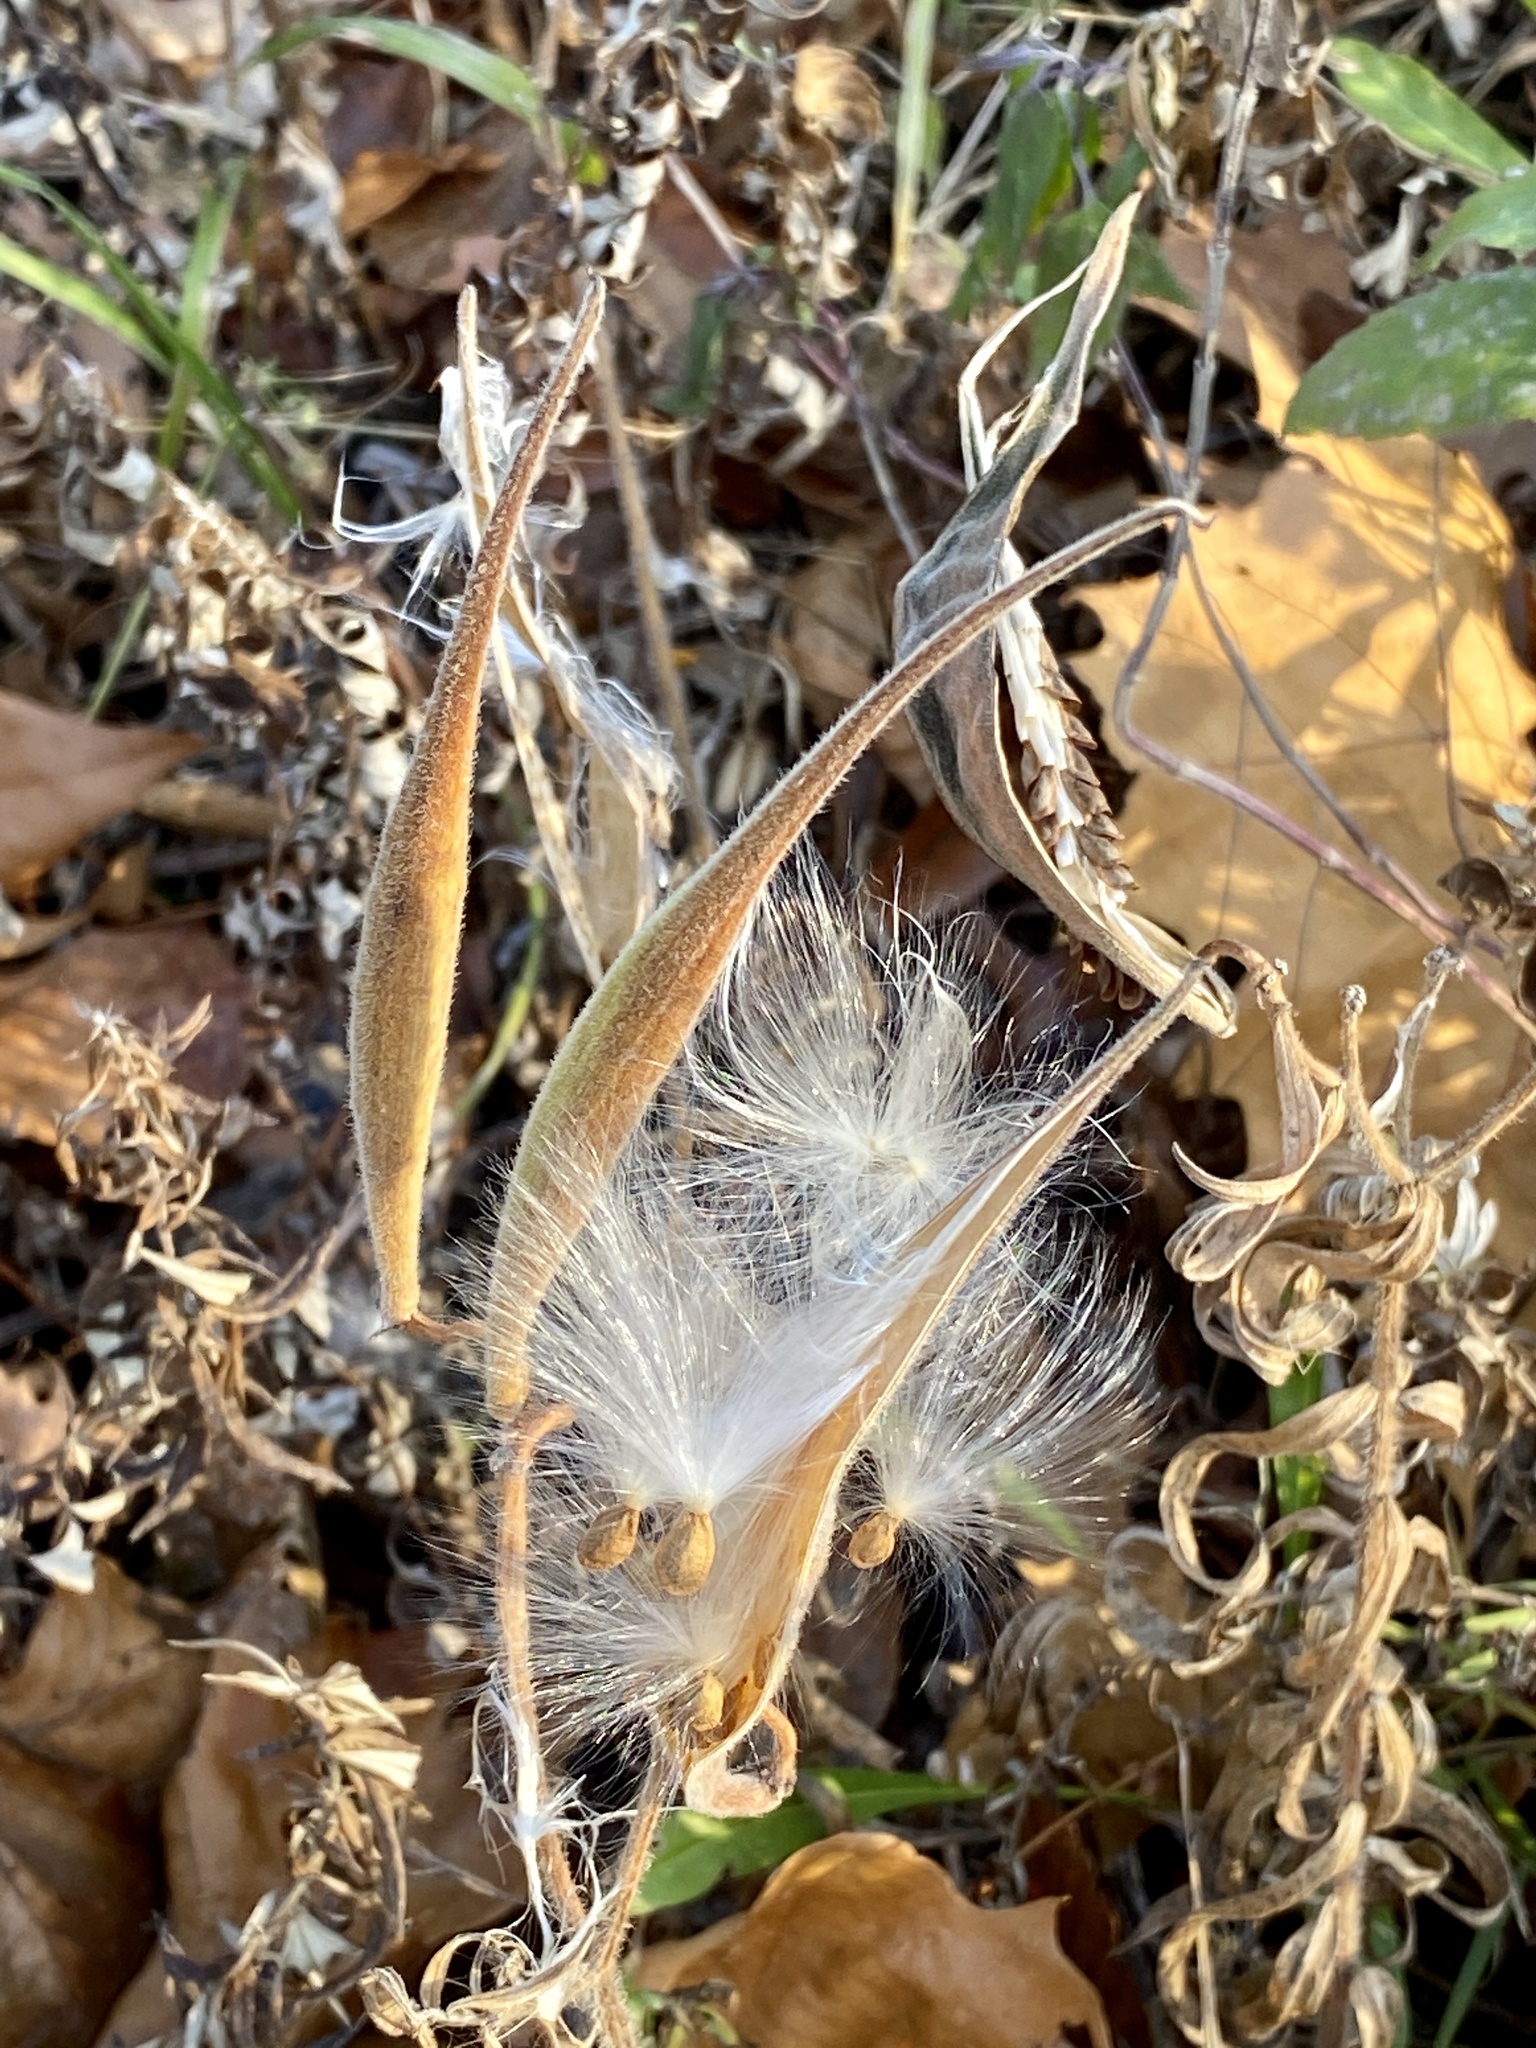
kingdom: Plantae
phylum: Tracheophyta
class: Magnoliopsida
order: Gentianales
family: Apocynaceae
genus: Asclepias
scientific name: Asclepias tuberosa
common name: Butterfly milkweed
